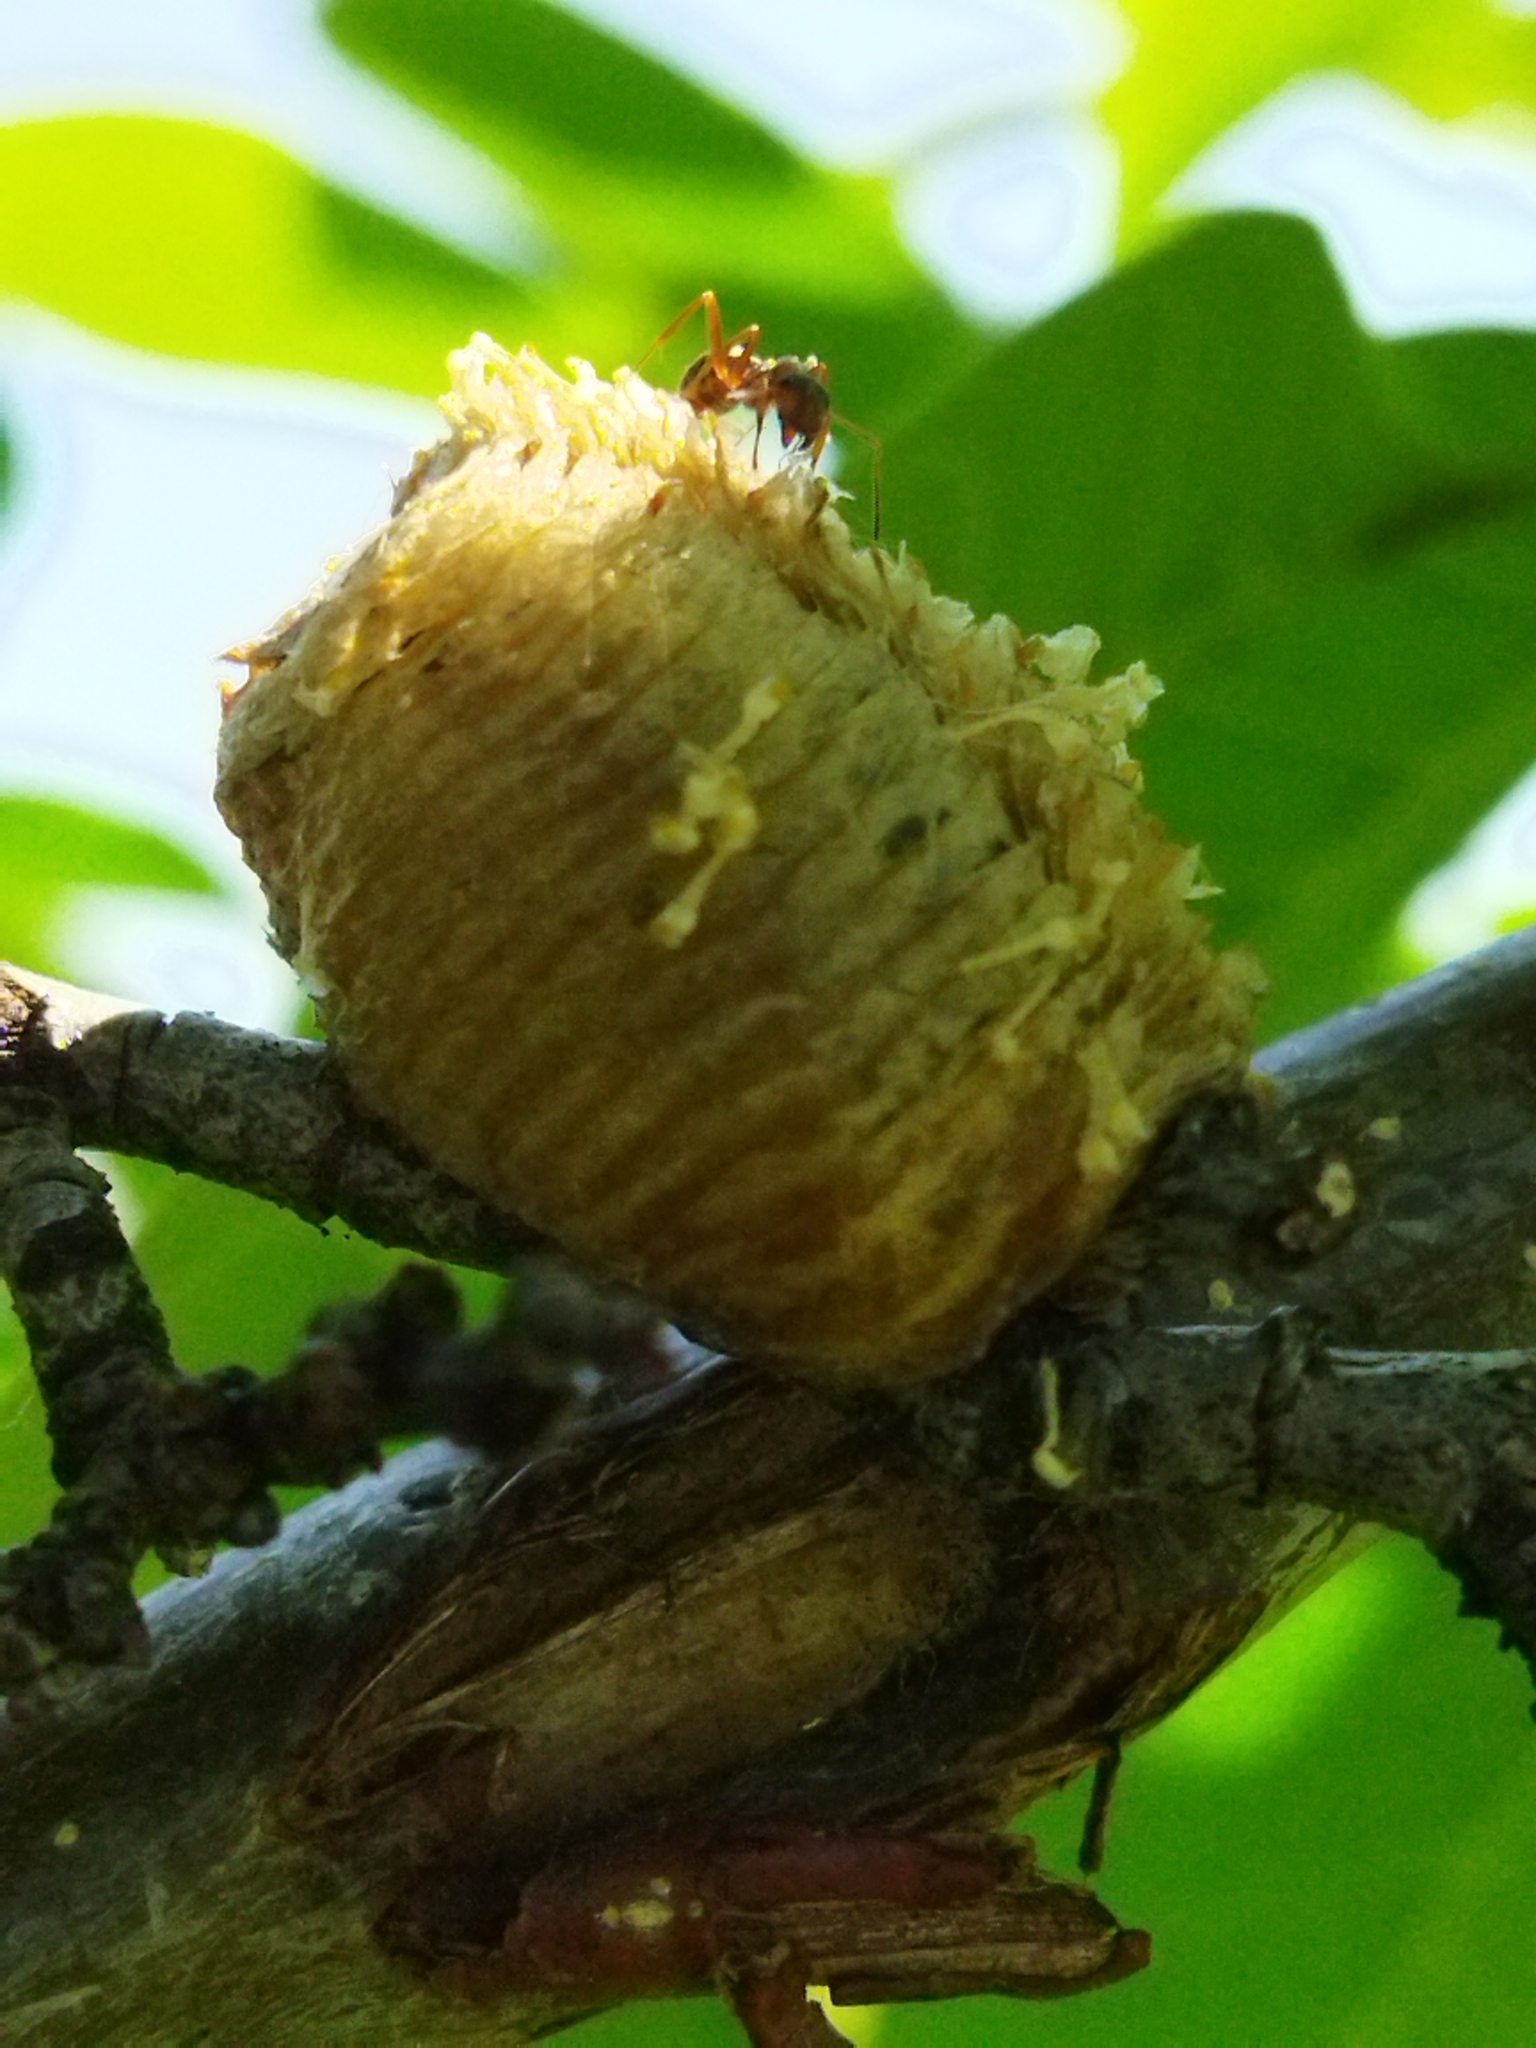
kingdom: Animalia
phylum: Arthropoda
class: Insecta
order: Mantodea
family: Mantidae
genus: Hierodula
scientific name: Hierodula transcaucasica
